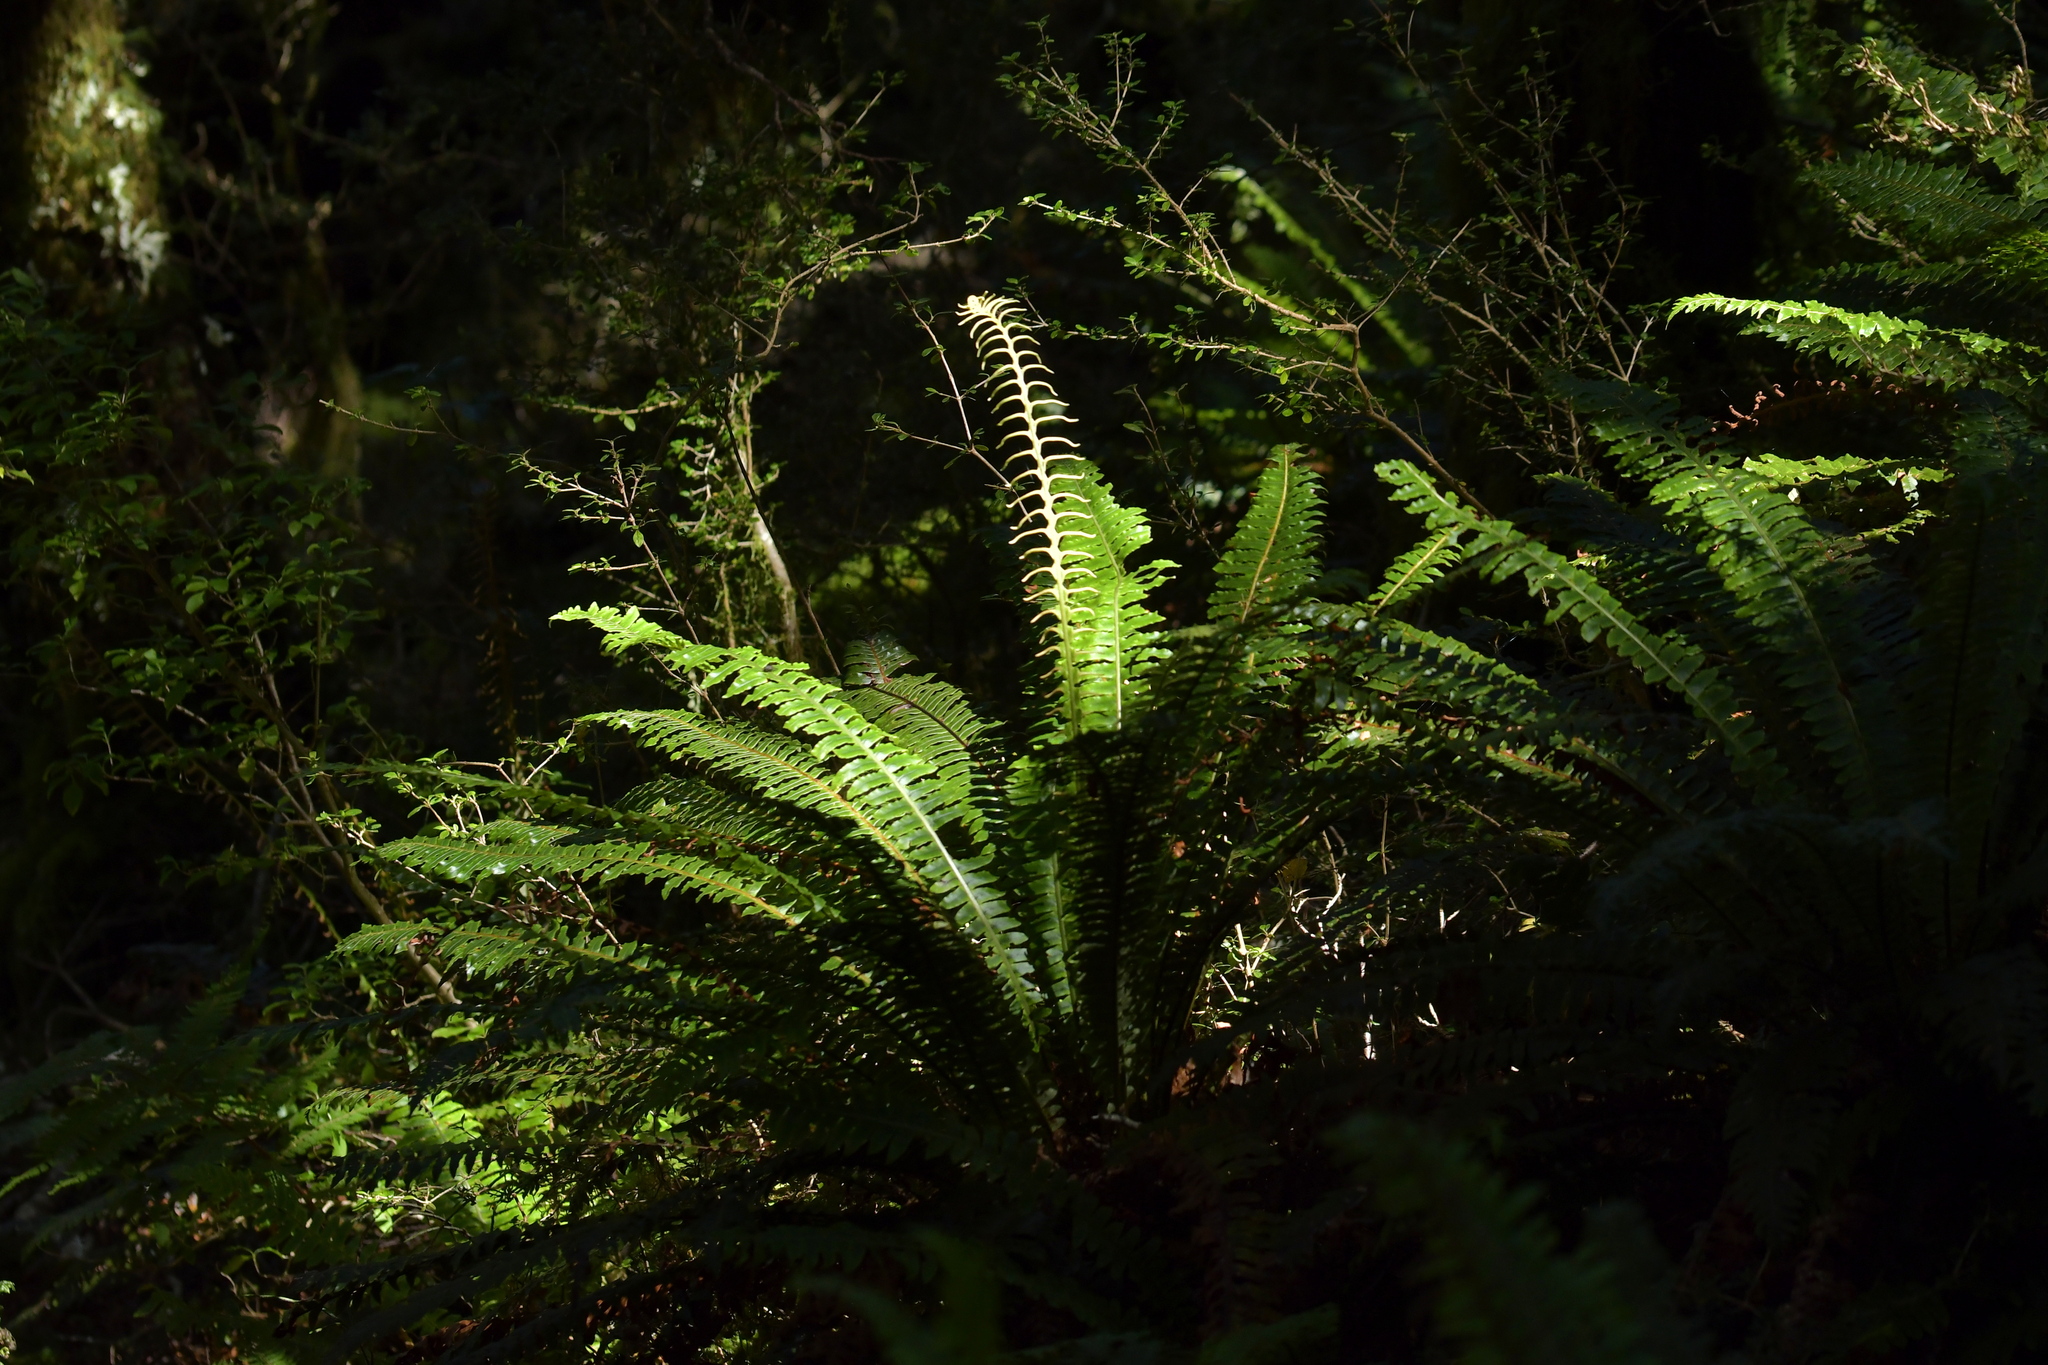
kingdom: Plantae
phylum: Tracheophyta
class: Polypodiopsida
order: Polypodiales
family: Blechnaceae
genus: Lomaria
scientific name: Lomaria discolor
